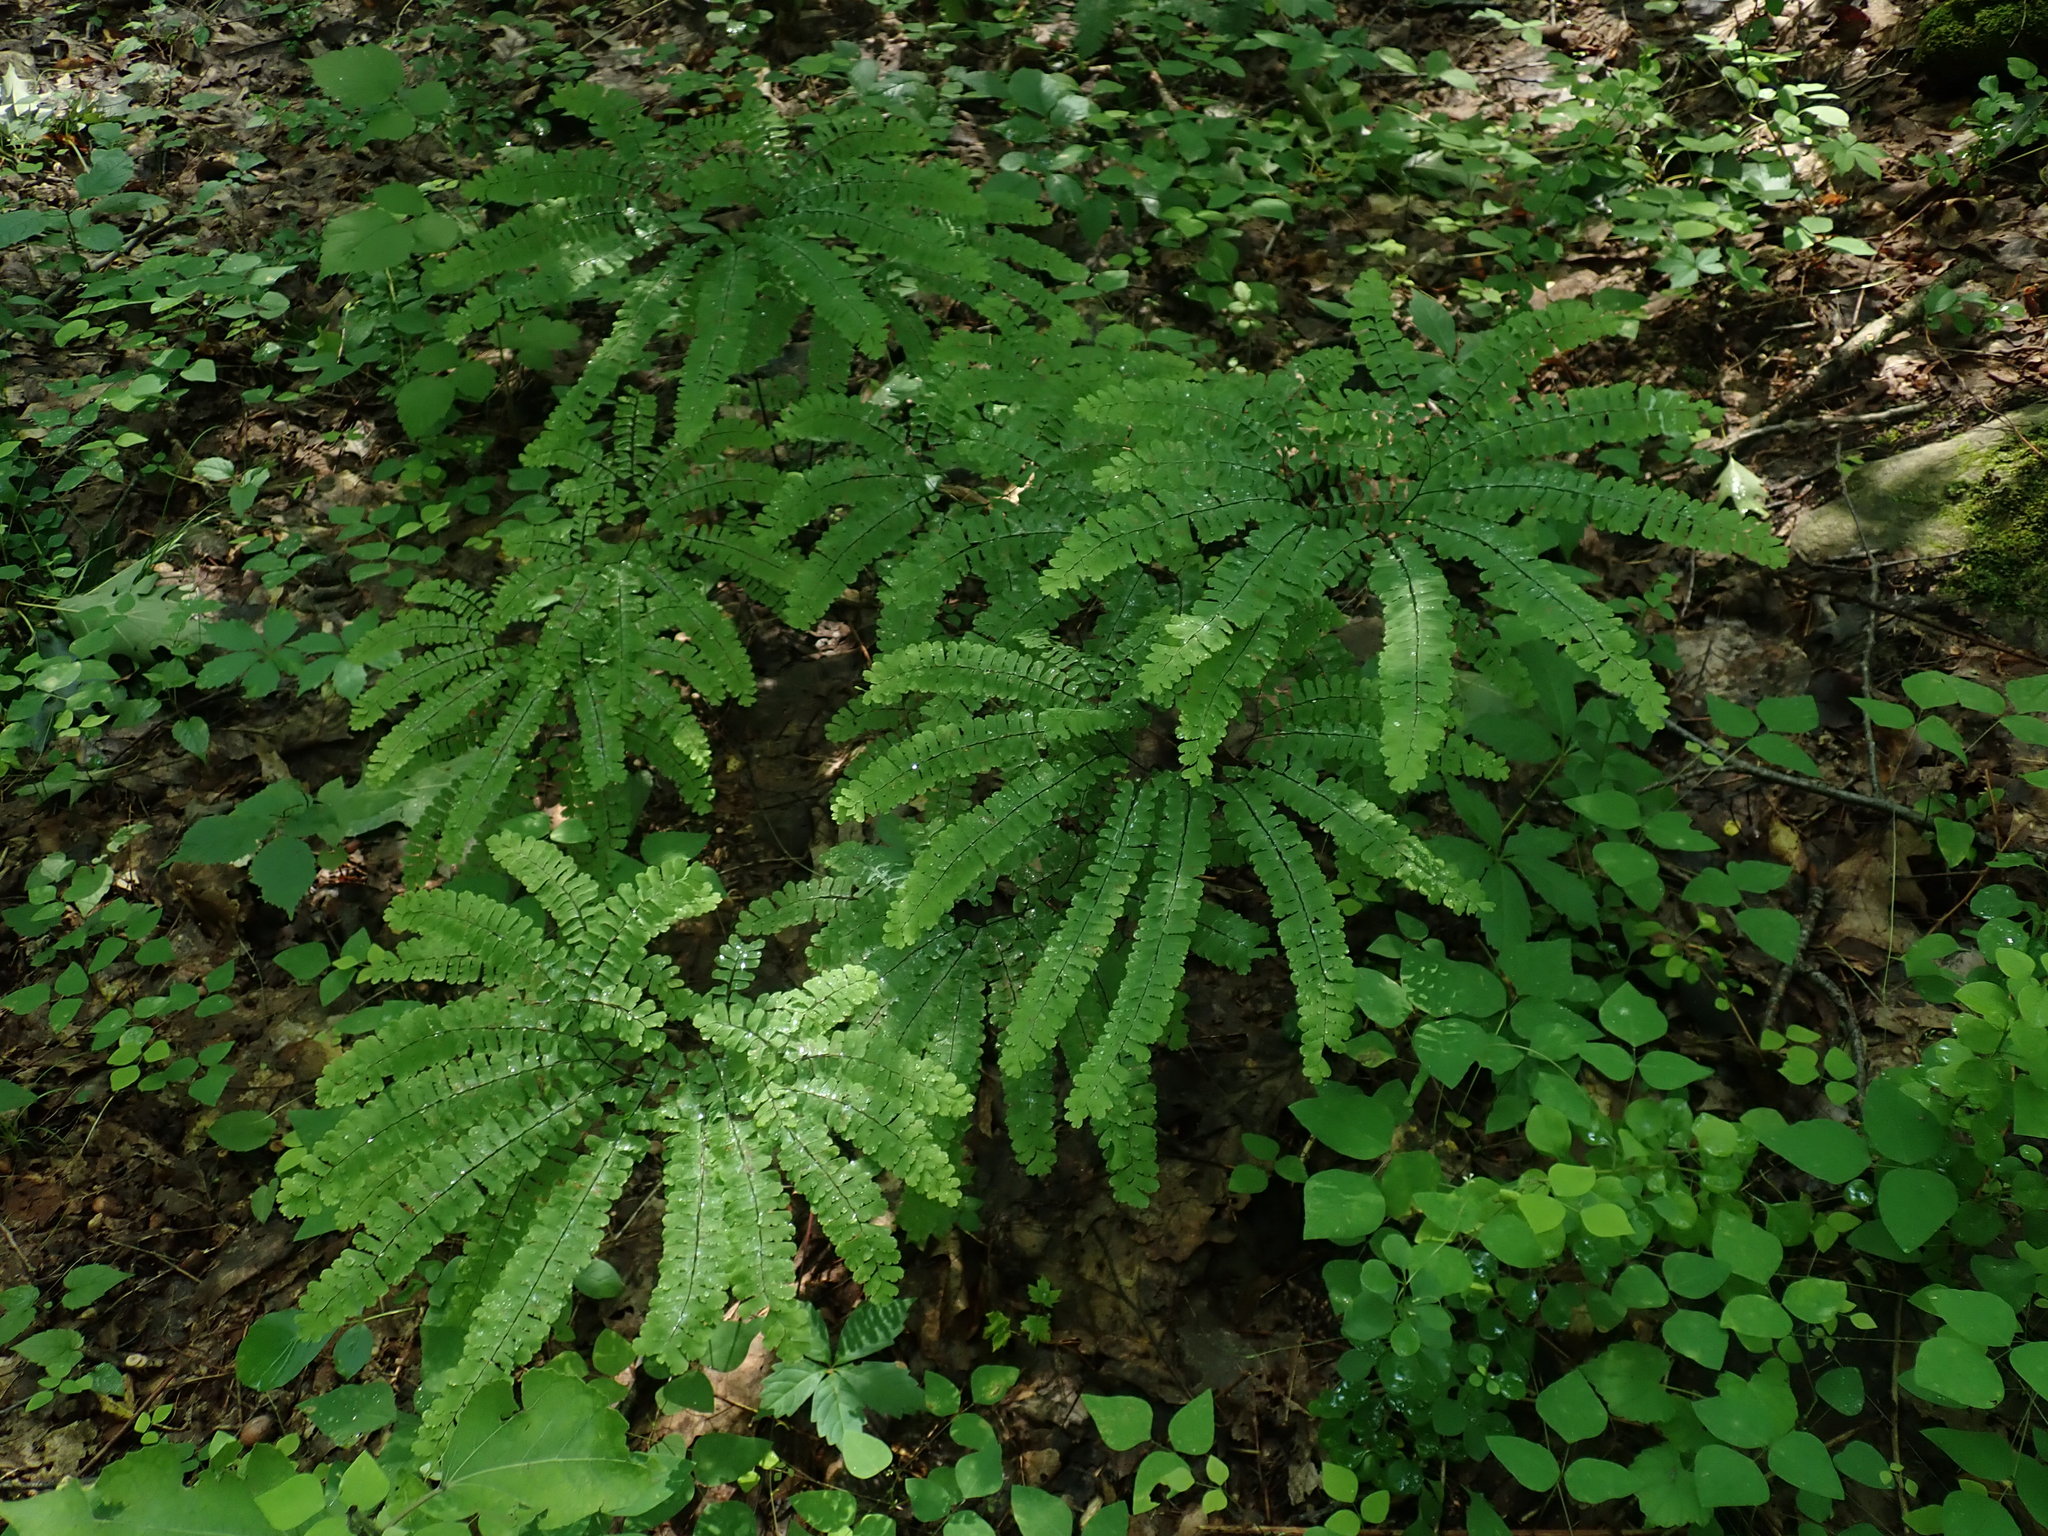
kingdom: Plantae
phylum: Tracheophyta
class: Polypodiopsida
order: Polypodiales
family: Pteridaceae
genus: Adiantum
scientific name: Adiantum pedatum
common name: Five-finger fern
